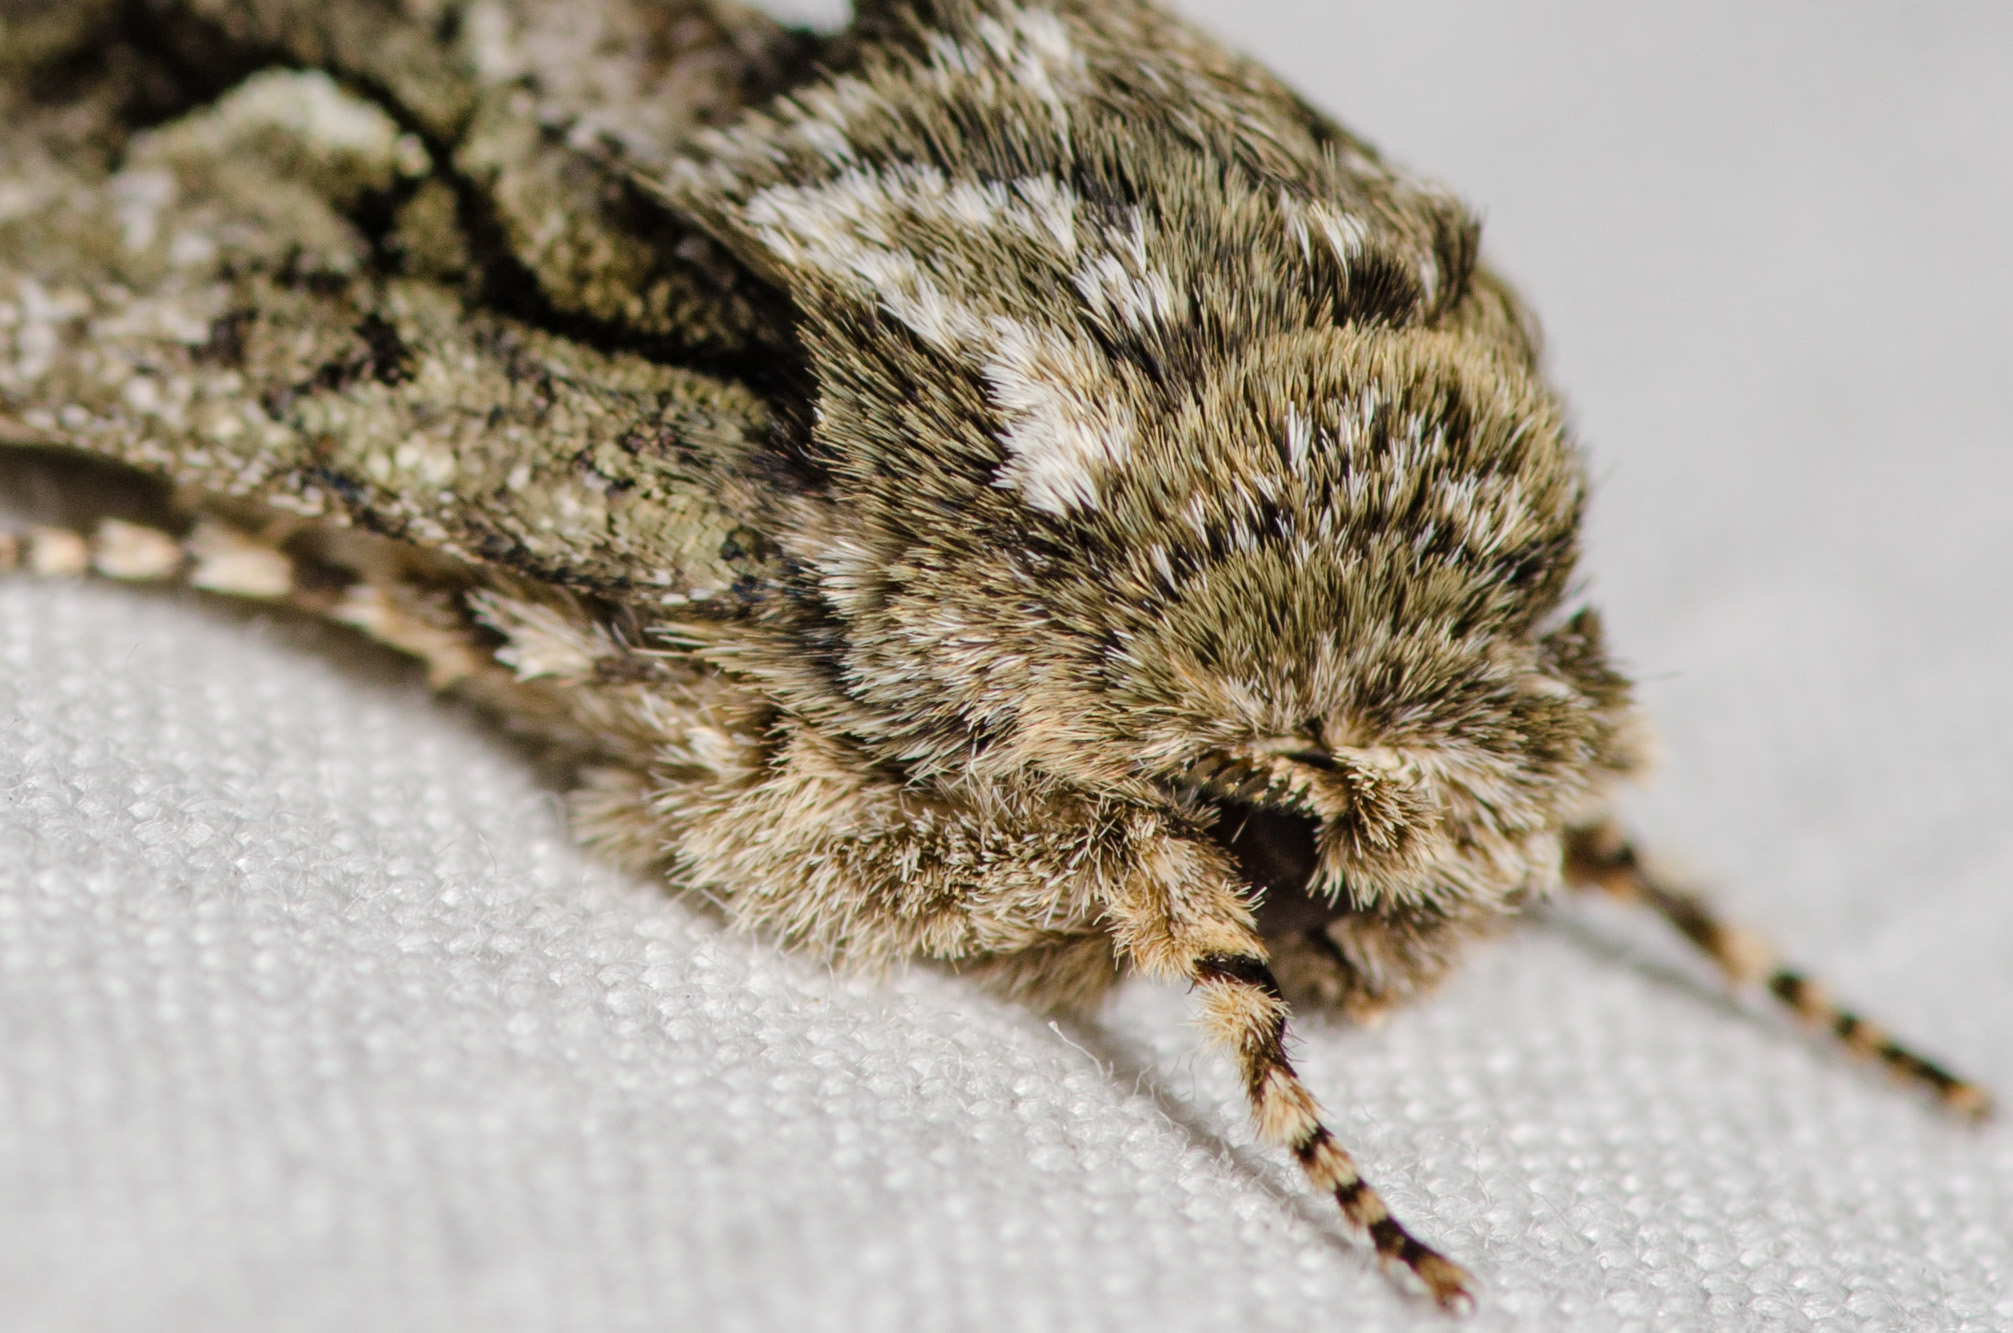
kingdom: Animalia
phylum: Arthropoda
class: Insecta
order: Lepidoptera
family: Noctuidae
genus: Psaphida
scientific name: Psaphida resumens
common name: Figure-eight sallow
